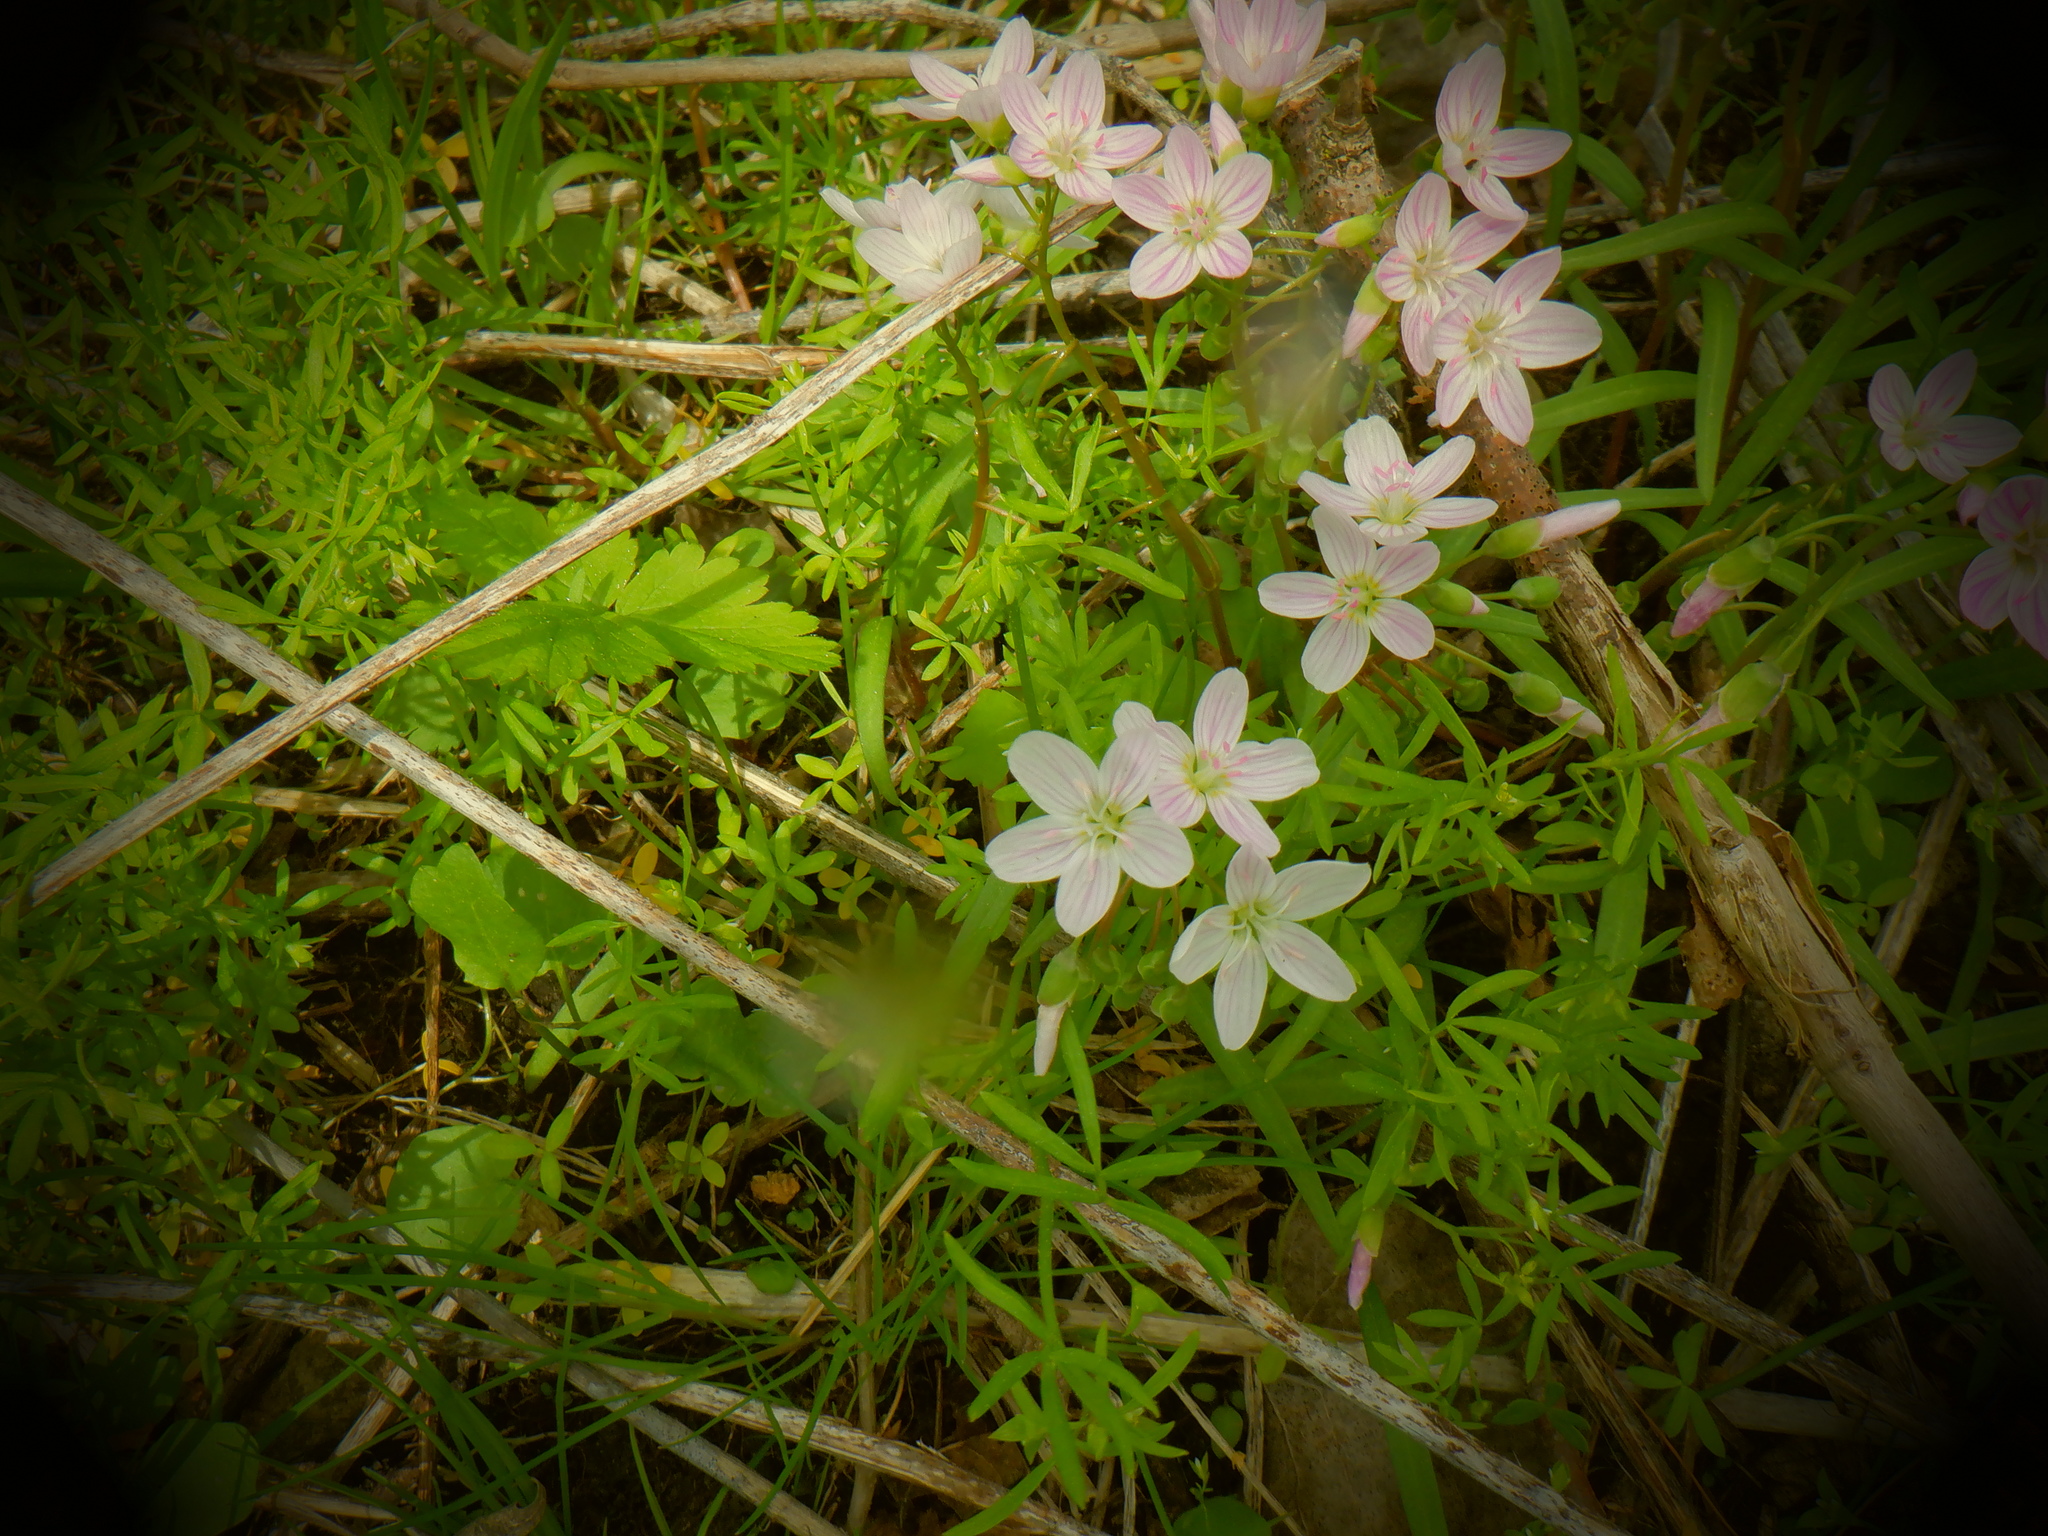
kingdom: Plantae
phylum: Tracheophyta
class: Magnoliopsida
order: Caryophyllales
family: Montiaceae
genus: Claytonia
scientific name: Claytonia virginica
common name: Virginia springbeauty
